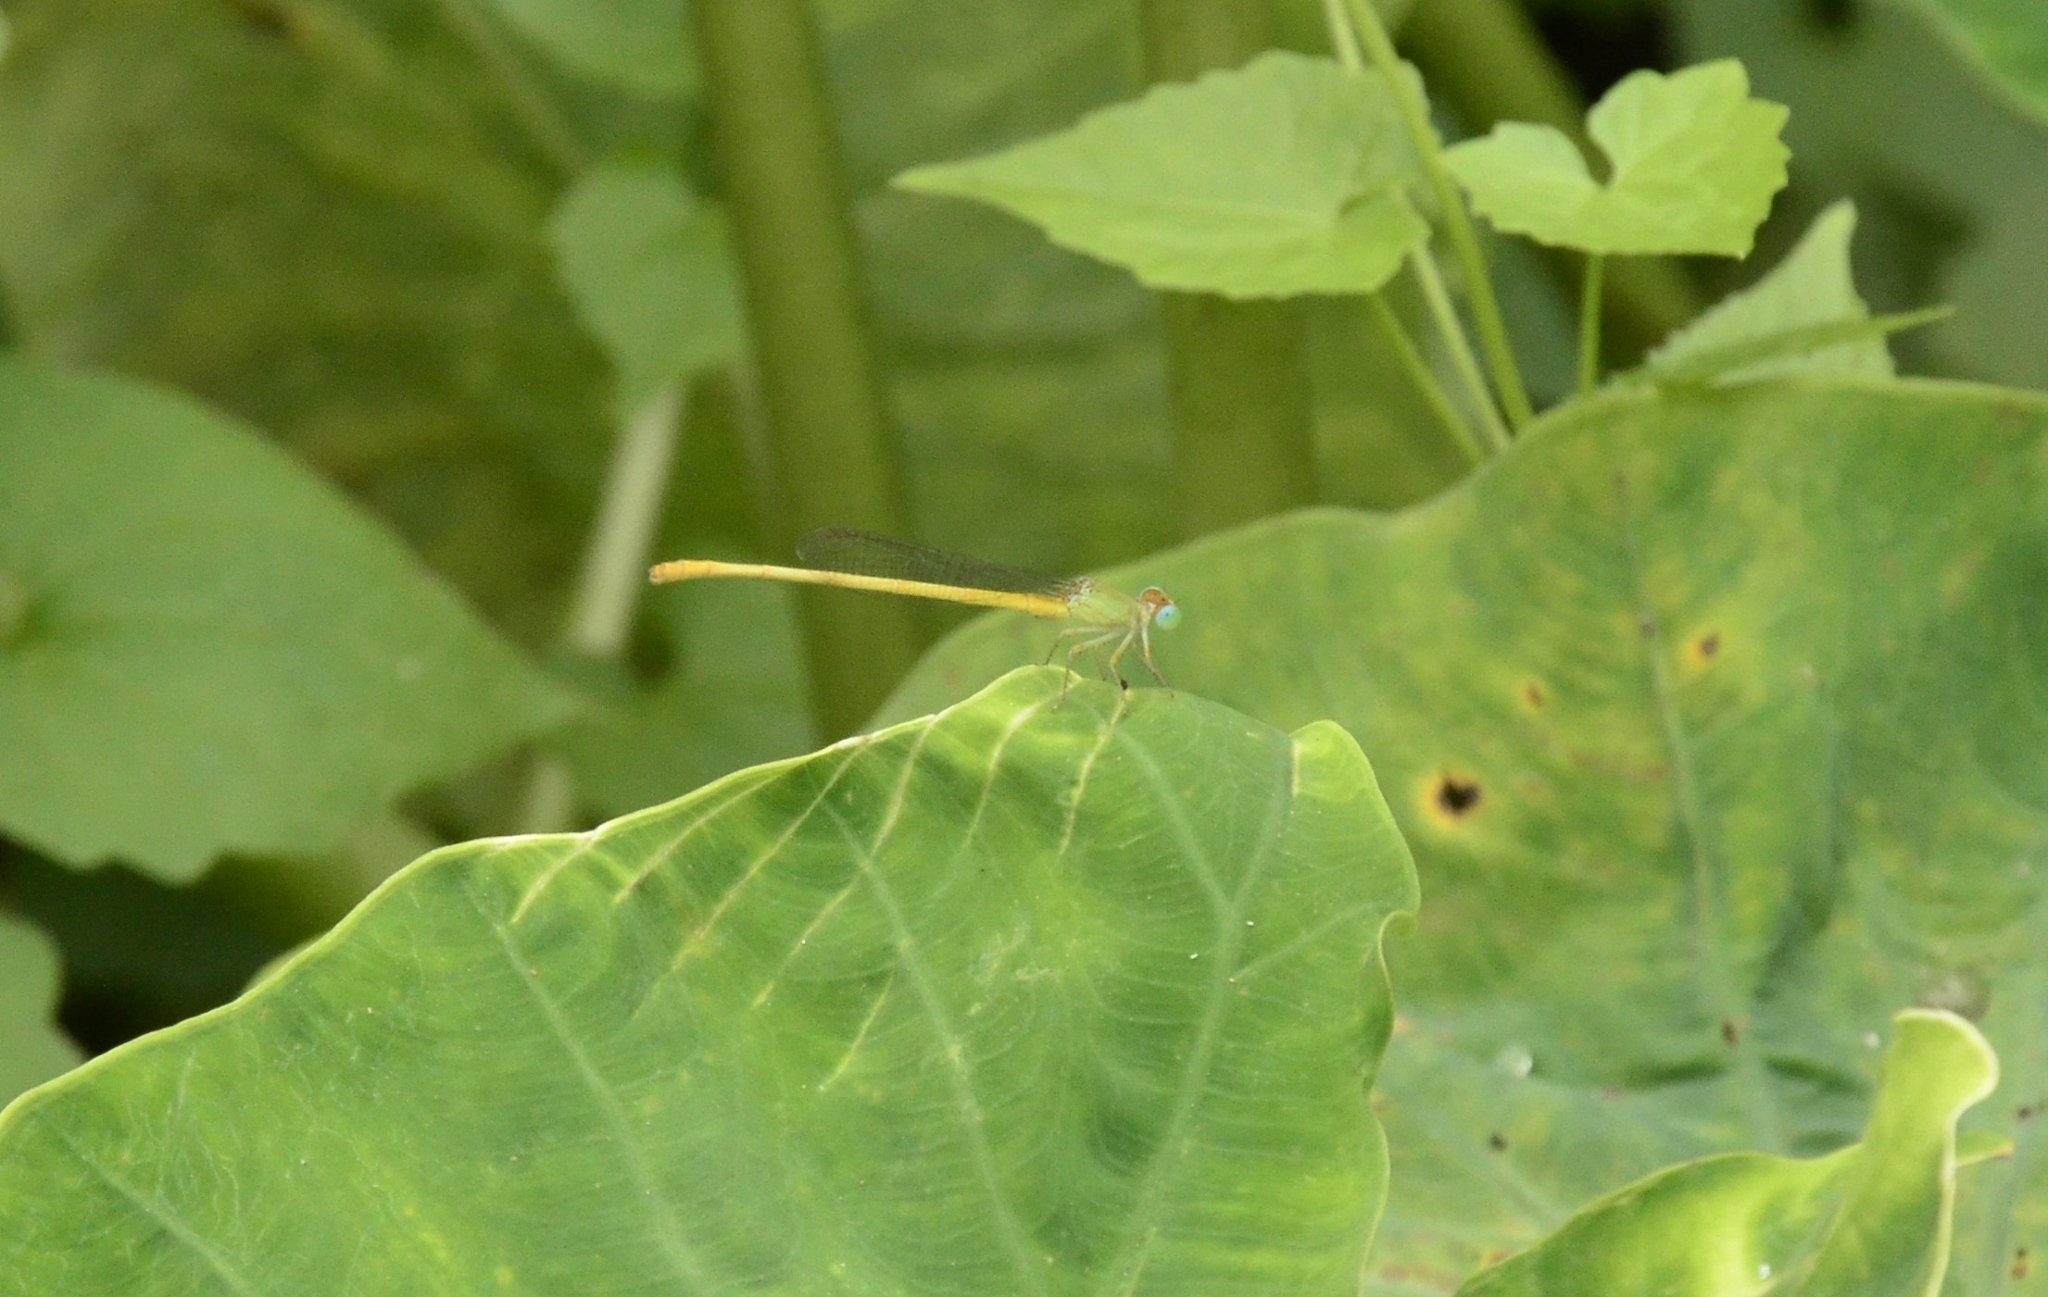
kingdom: Animalia
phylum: Arthropoda
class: Insecta
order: Odonata
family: Coenagrionidae
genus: Ceriagrion
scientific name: Ceriagrion coromandelianum
